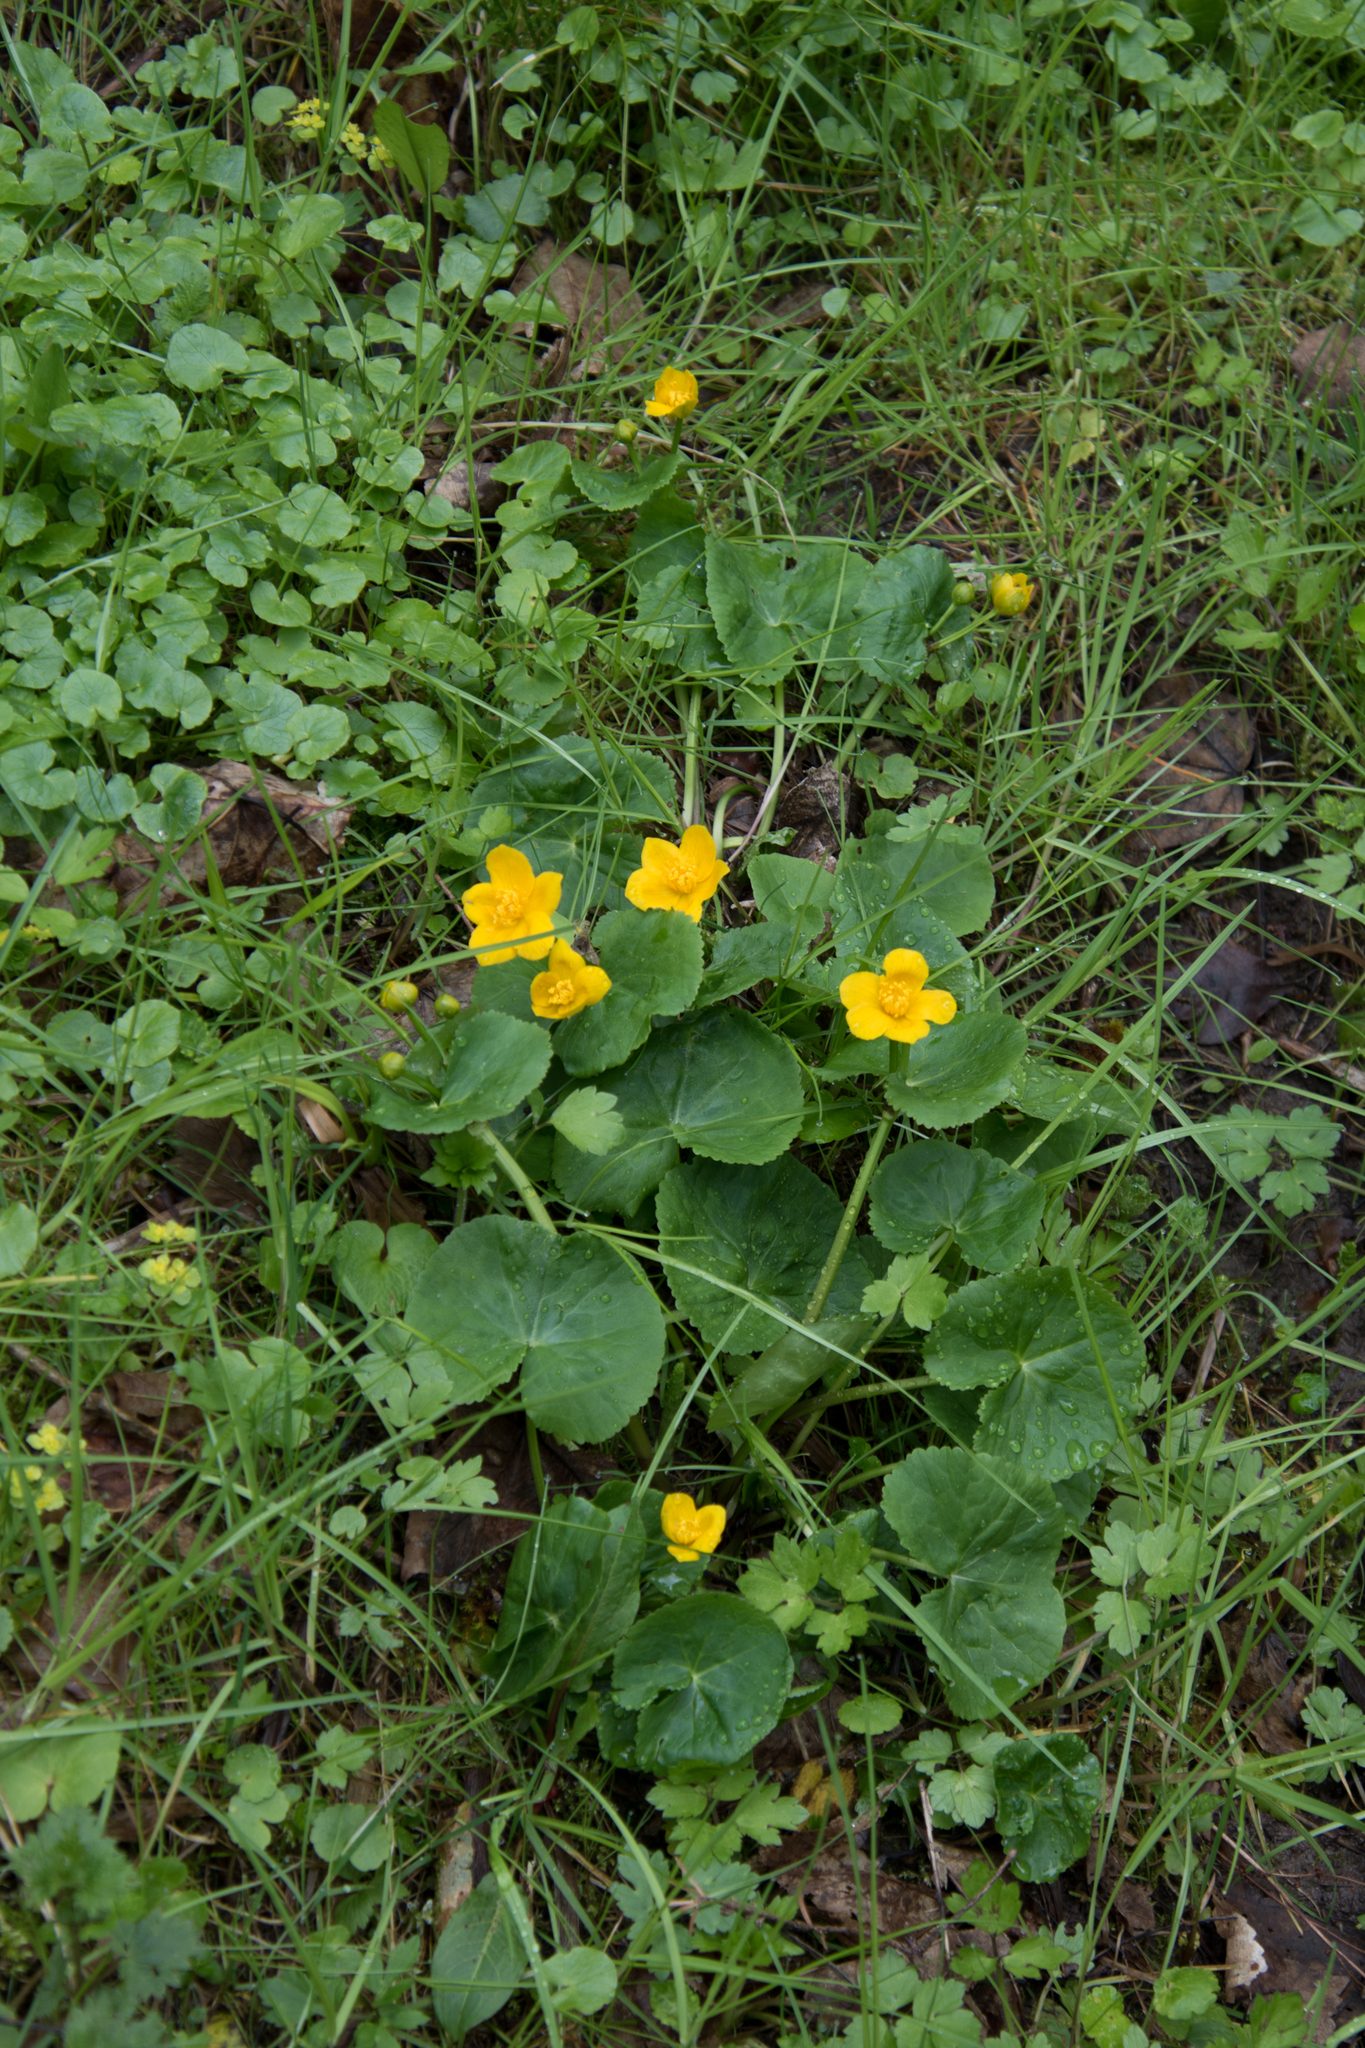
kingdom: Plantae
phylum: Tracheophyta
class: Magnoliopsida
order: Ranunculales
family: Ranunculaceae
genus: Caltha
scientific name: Caltha palustris
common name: Marsh marigold
